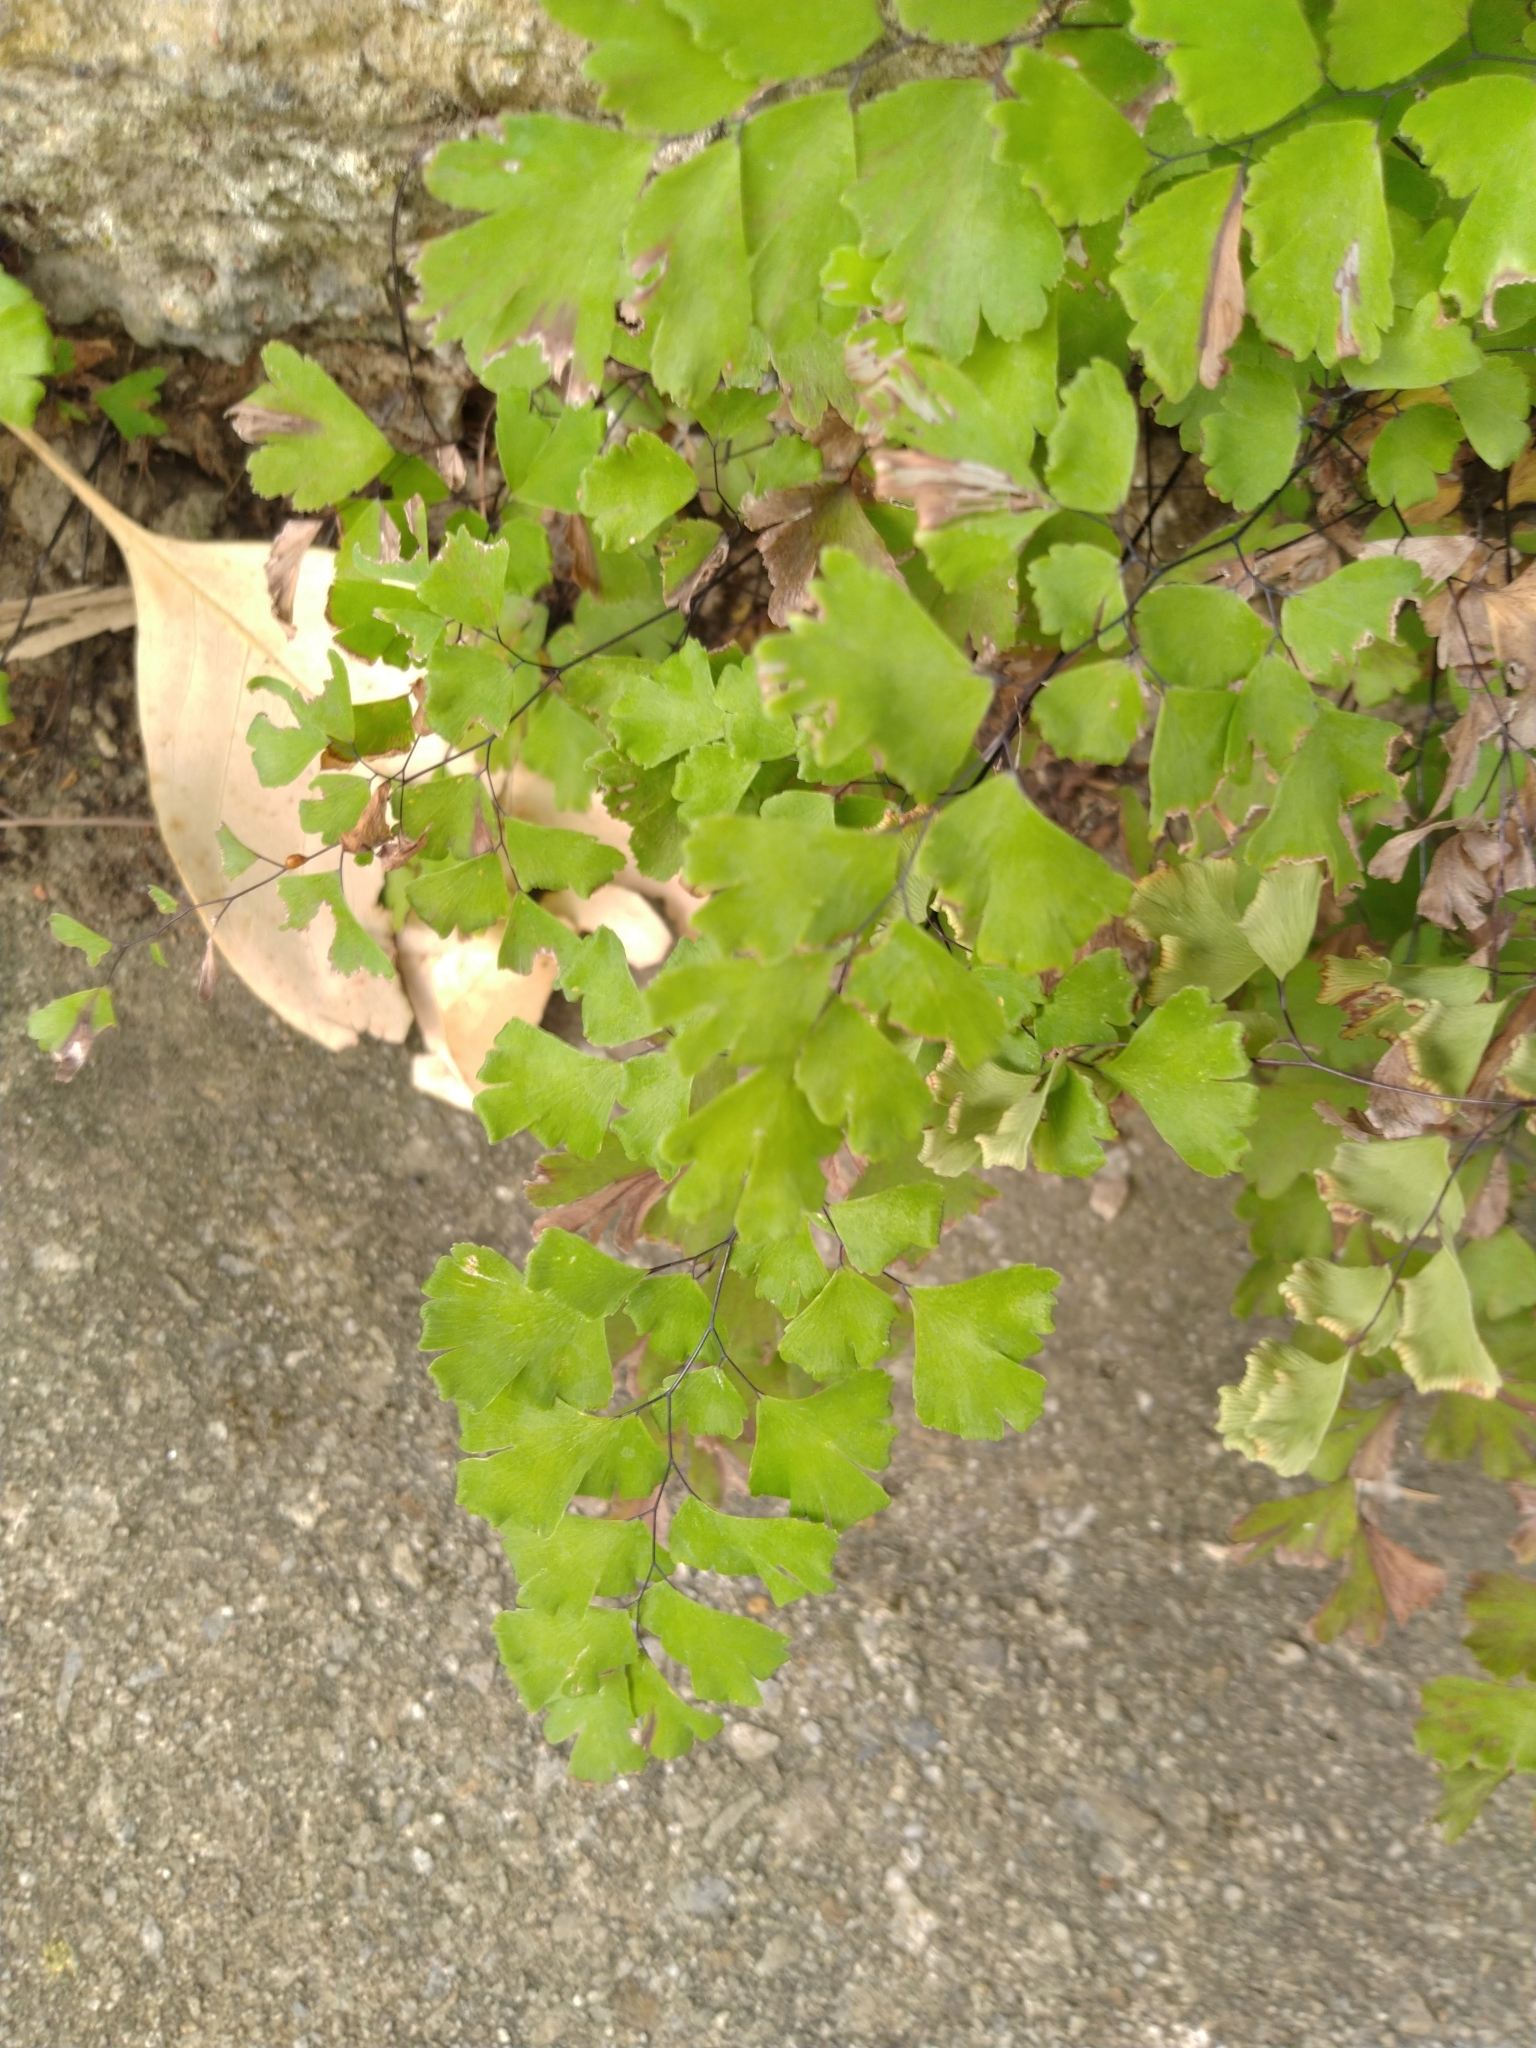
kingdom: Plantae
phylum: Tracheophyta
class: Polypodiopsida
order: Polypodiales
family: Pteridaceae
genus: Adiantum
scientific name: Adiantum capillus-veneris
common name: Maidenhair fern
